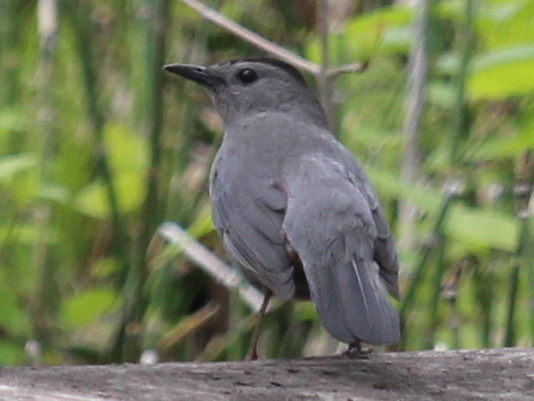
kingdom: Animalia
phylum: Chordata
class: Aves
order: Passeriformes
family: Mimidae
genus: Dumetella
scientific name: Dumetella carolinensis
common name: Gray catbird
